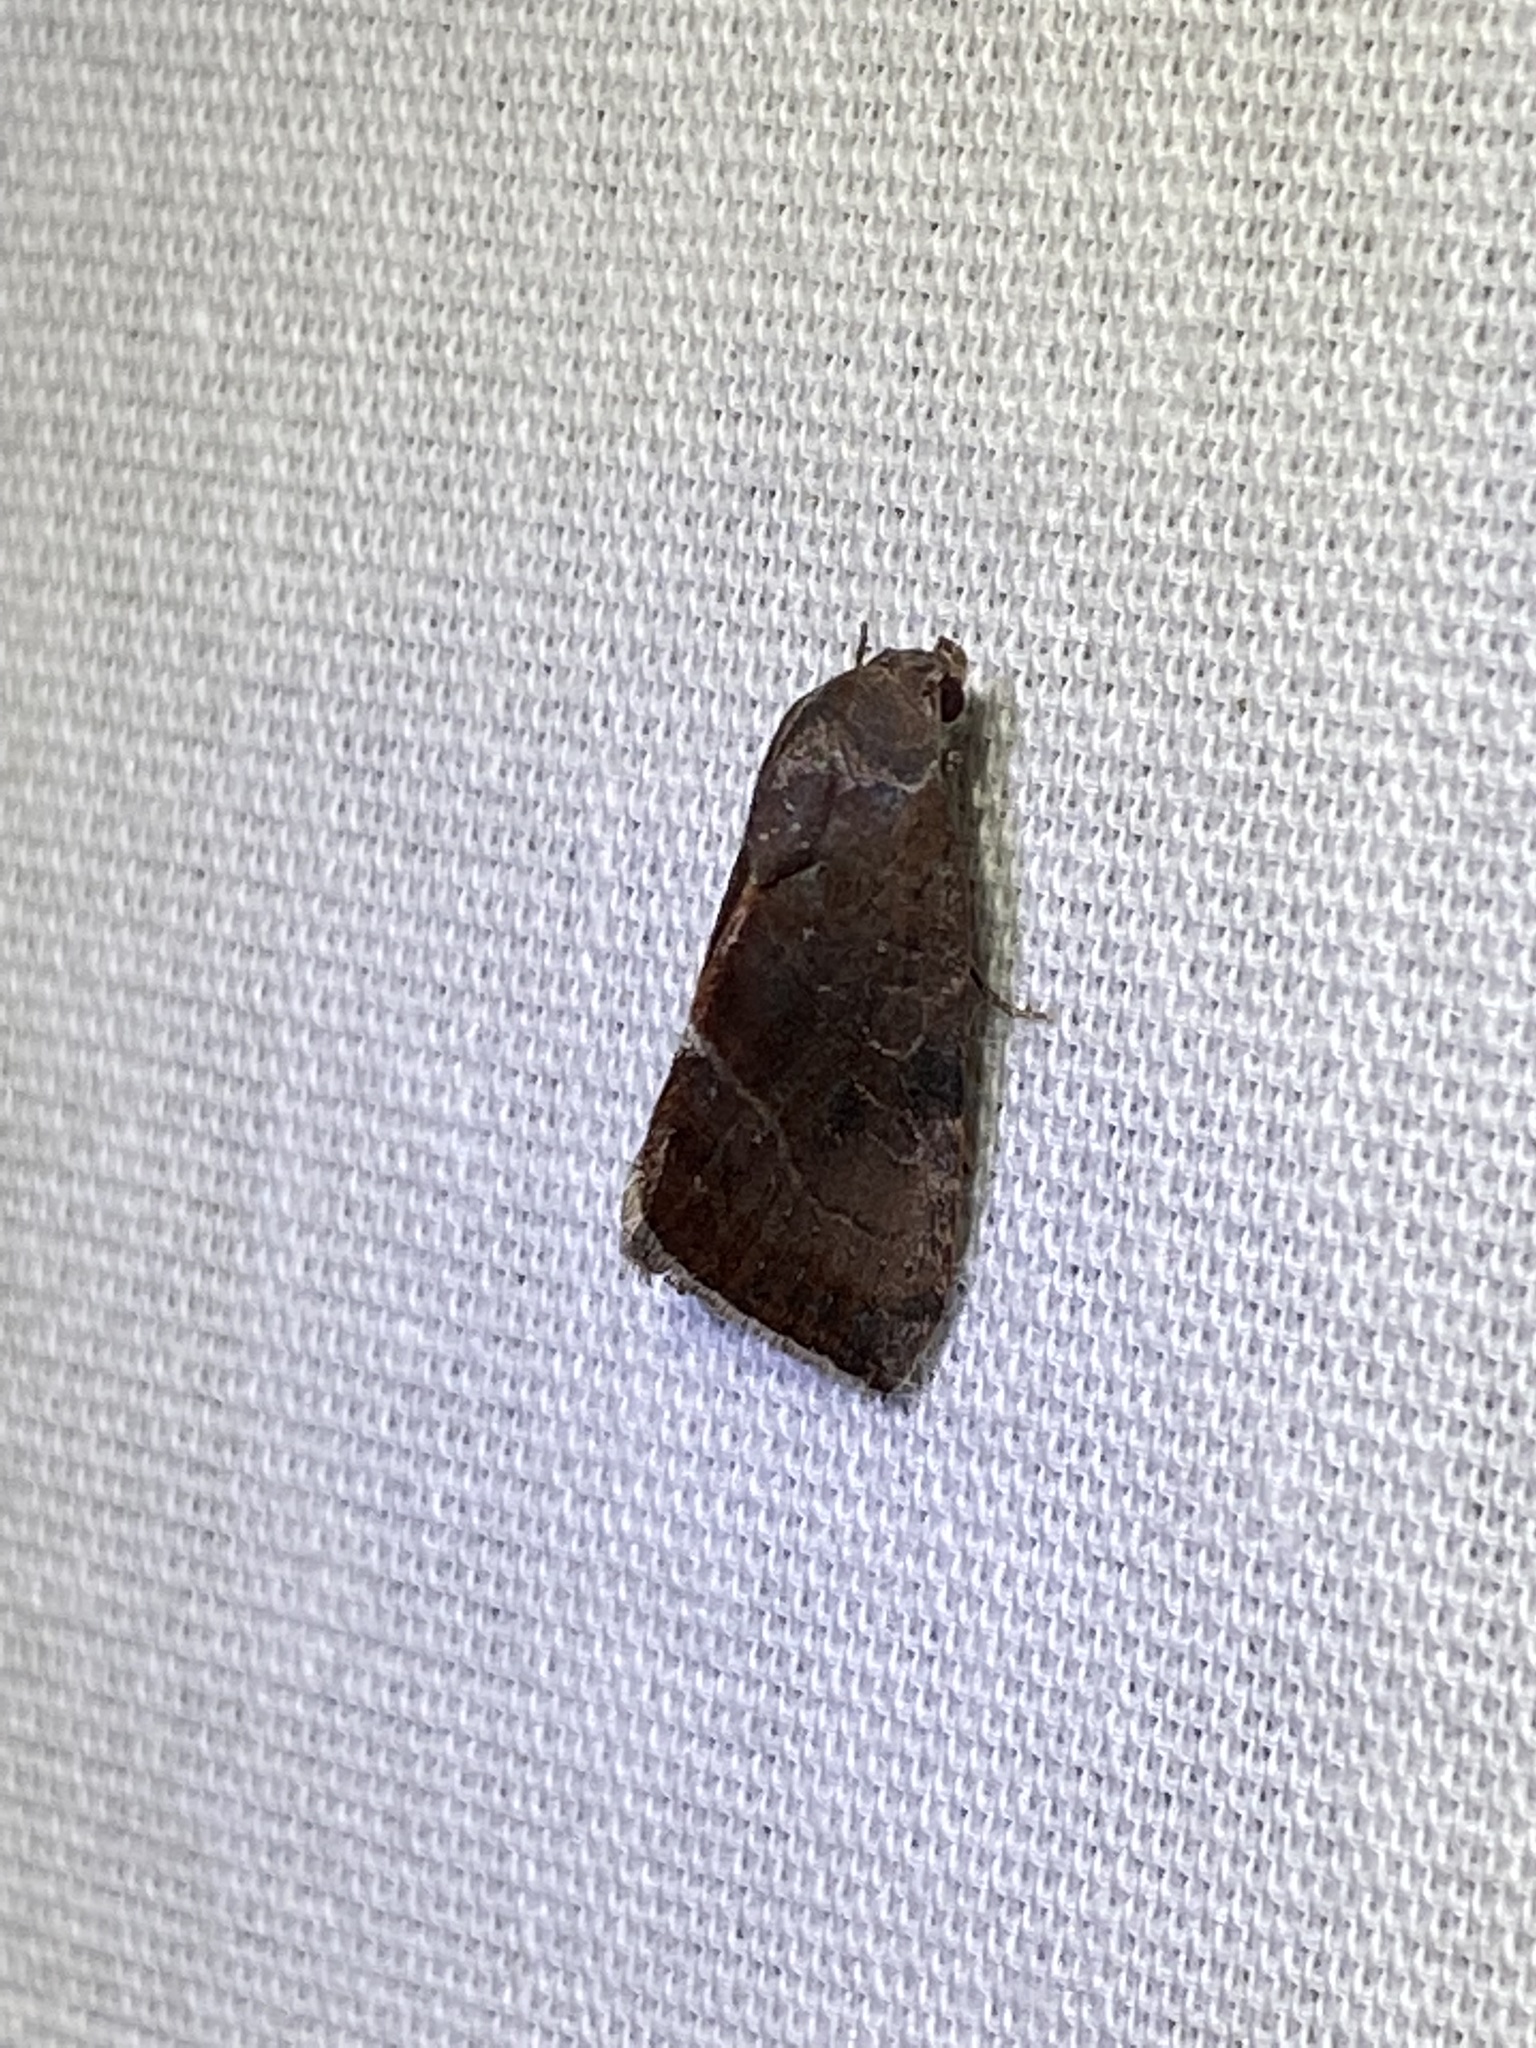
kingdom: Animalia
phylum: Arthropoda
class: Insecta
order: Lepidoptera
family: Noctuidae
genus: Galgula
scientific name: Galgula partita
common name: Wedgeling
